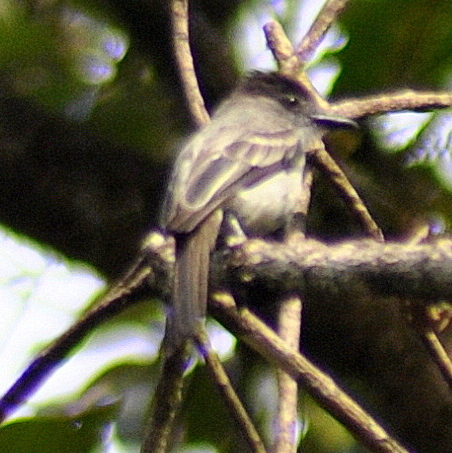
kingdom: Animalia
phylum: Chordata
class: Aves
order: Passeriformes
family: Tyrannidae
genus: Sirystes
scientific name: Sirystes sibilator
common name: Sirystes
